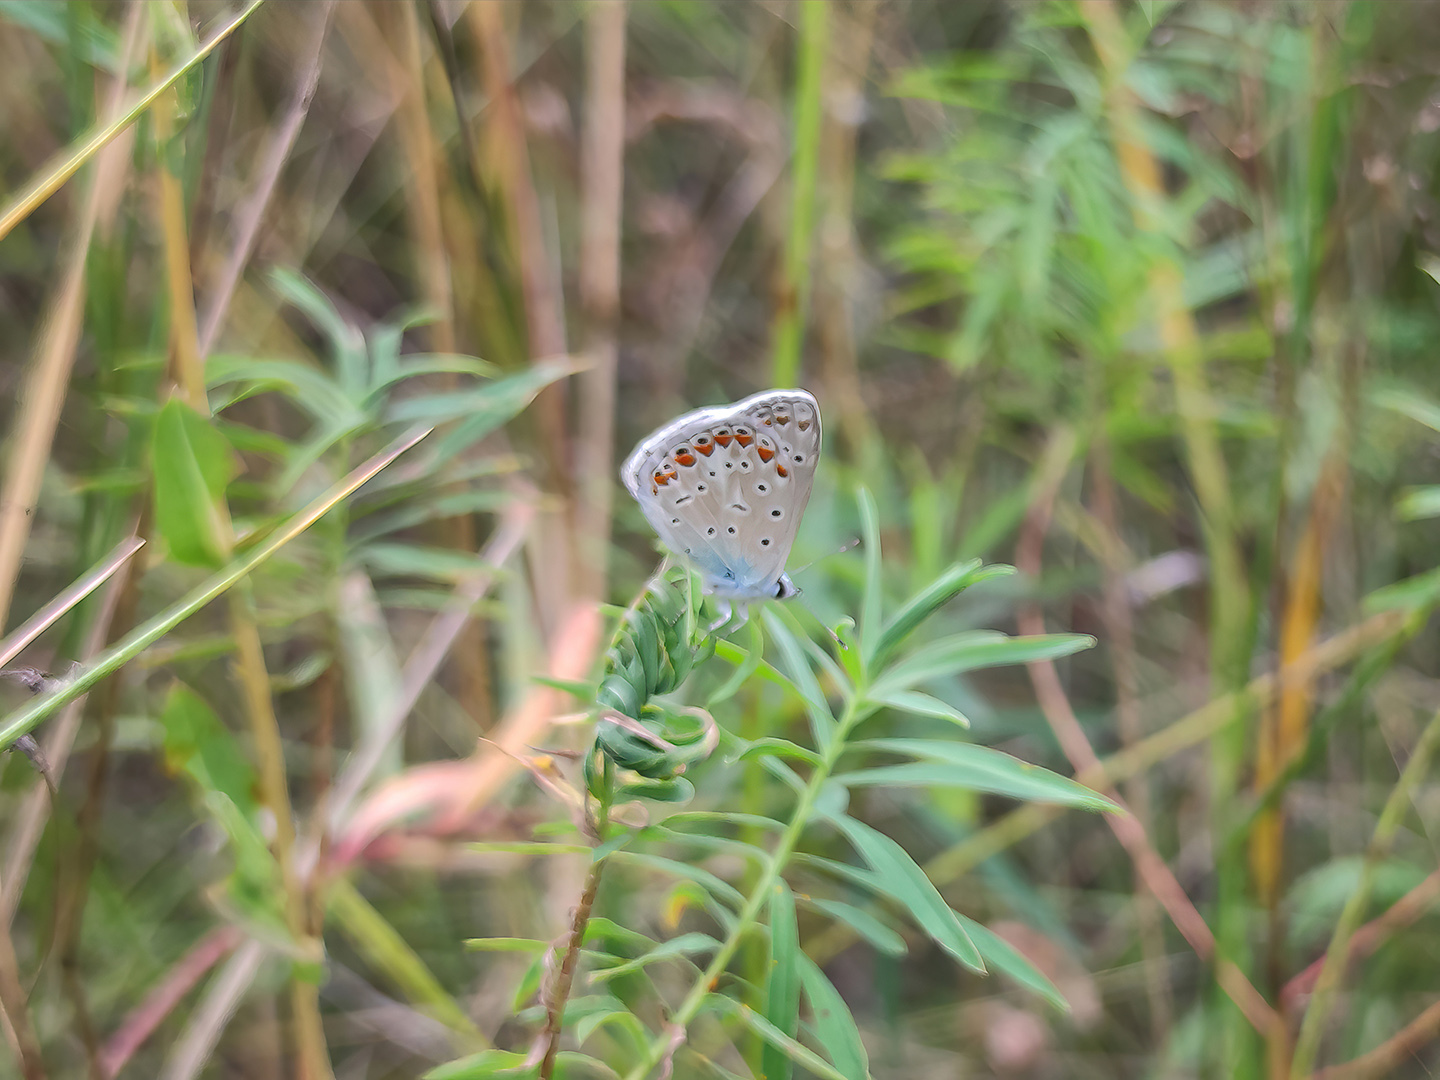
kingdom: Animalia
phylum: Arthropoda
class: Insecta
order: Lepidoptera
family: Lycaenidae
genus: Polyommatus
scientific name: Polyommatus icarus
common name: Common blue
